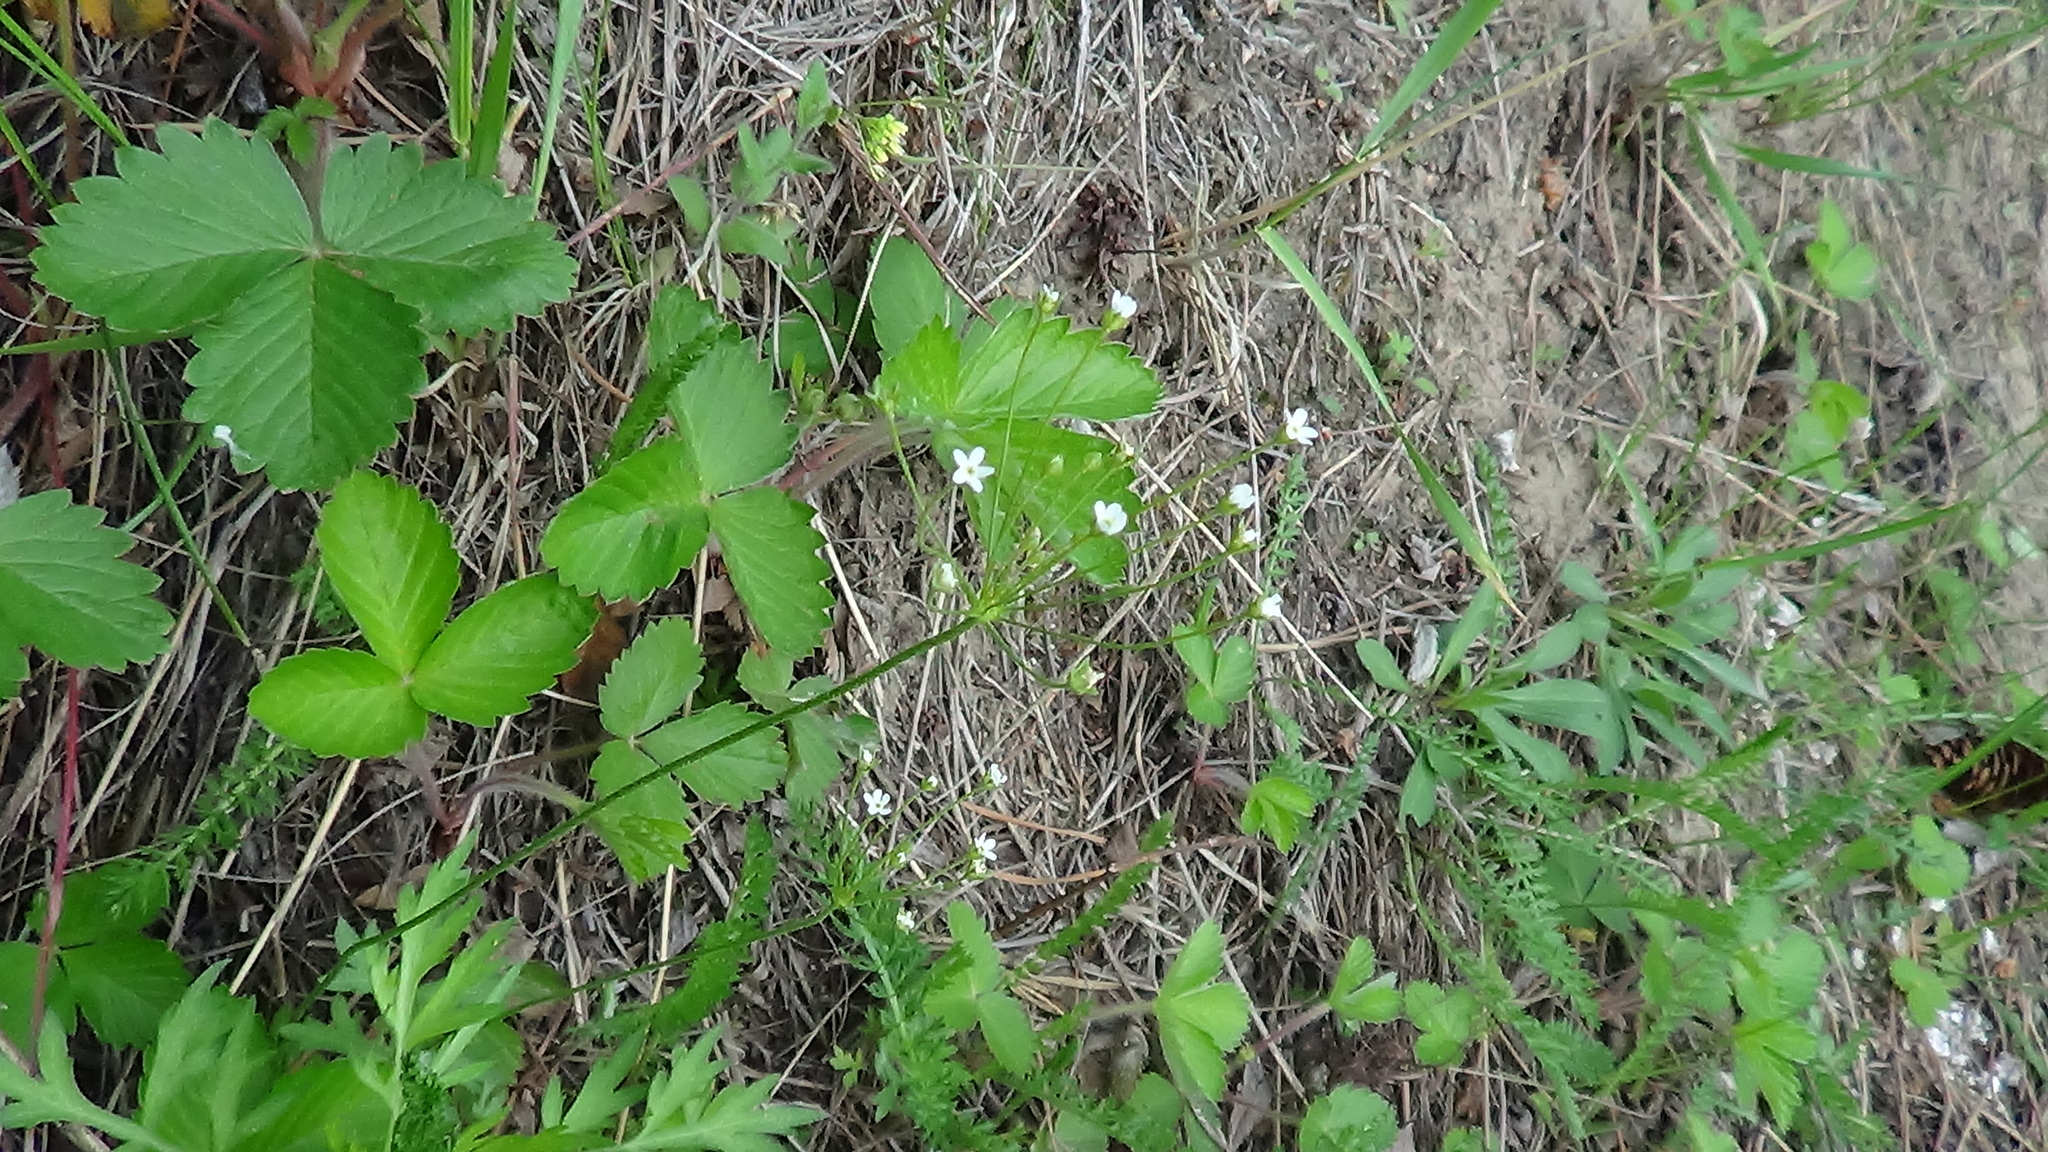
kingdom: Plantae
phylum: Tracheophyta
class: Magnoliopsida
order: Ericales
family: Primulaceae
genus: Androsace
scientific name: Androsace septentrionalis
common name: Hairy northern fairy-candelabra
